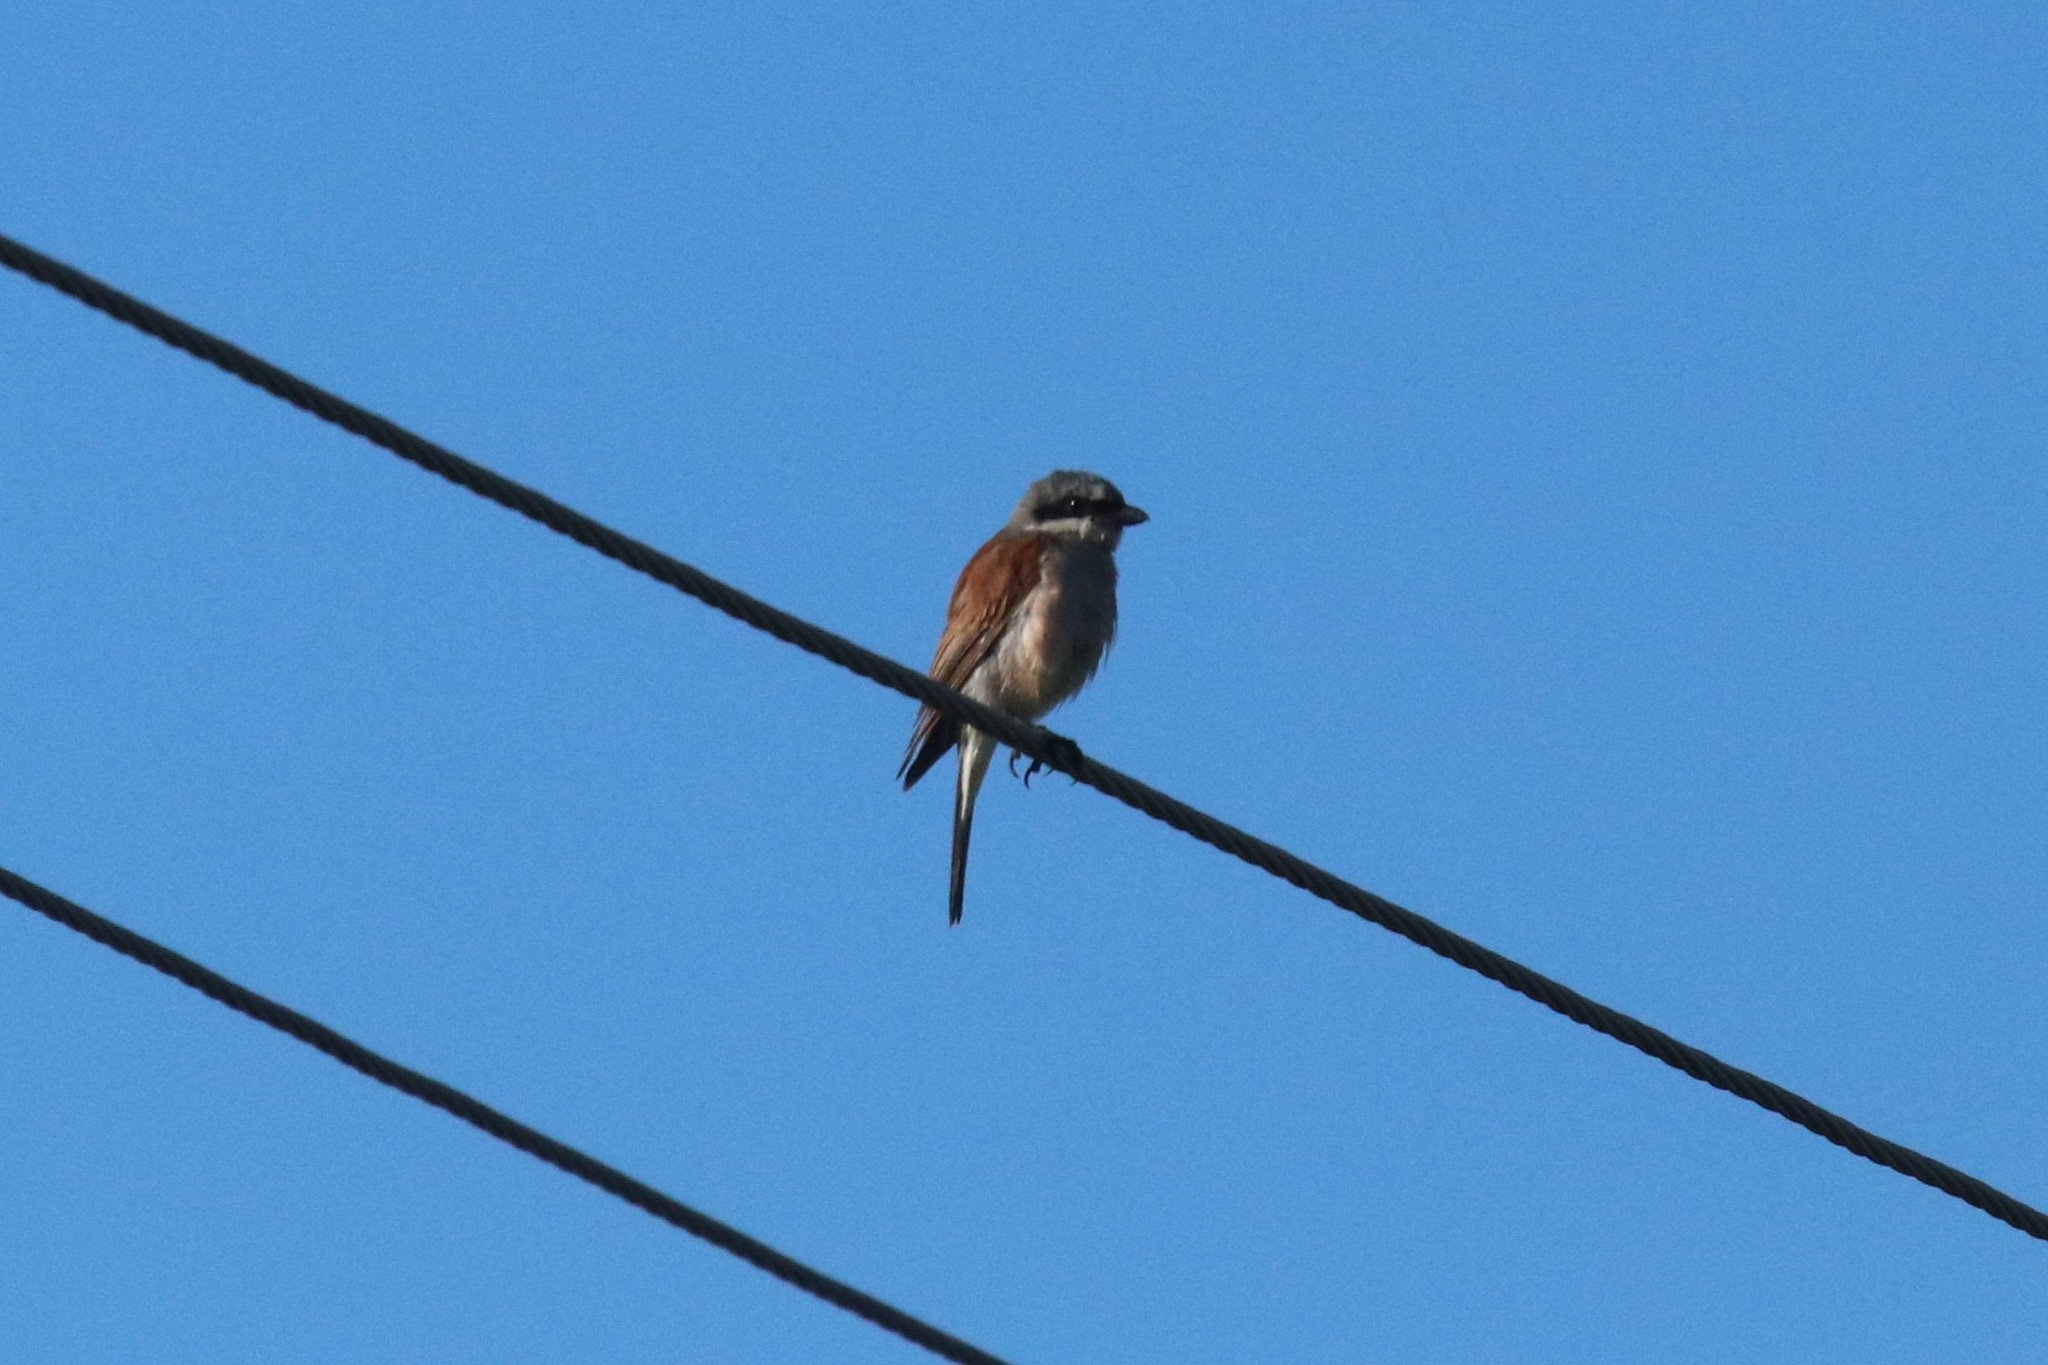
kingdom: Animalia
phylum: Chordata
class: Aves
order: Passeriformes
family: Laniidae
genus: Lanius
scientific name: Lanius collurio
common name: Red-backed shrike
